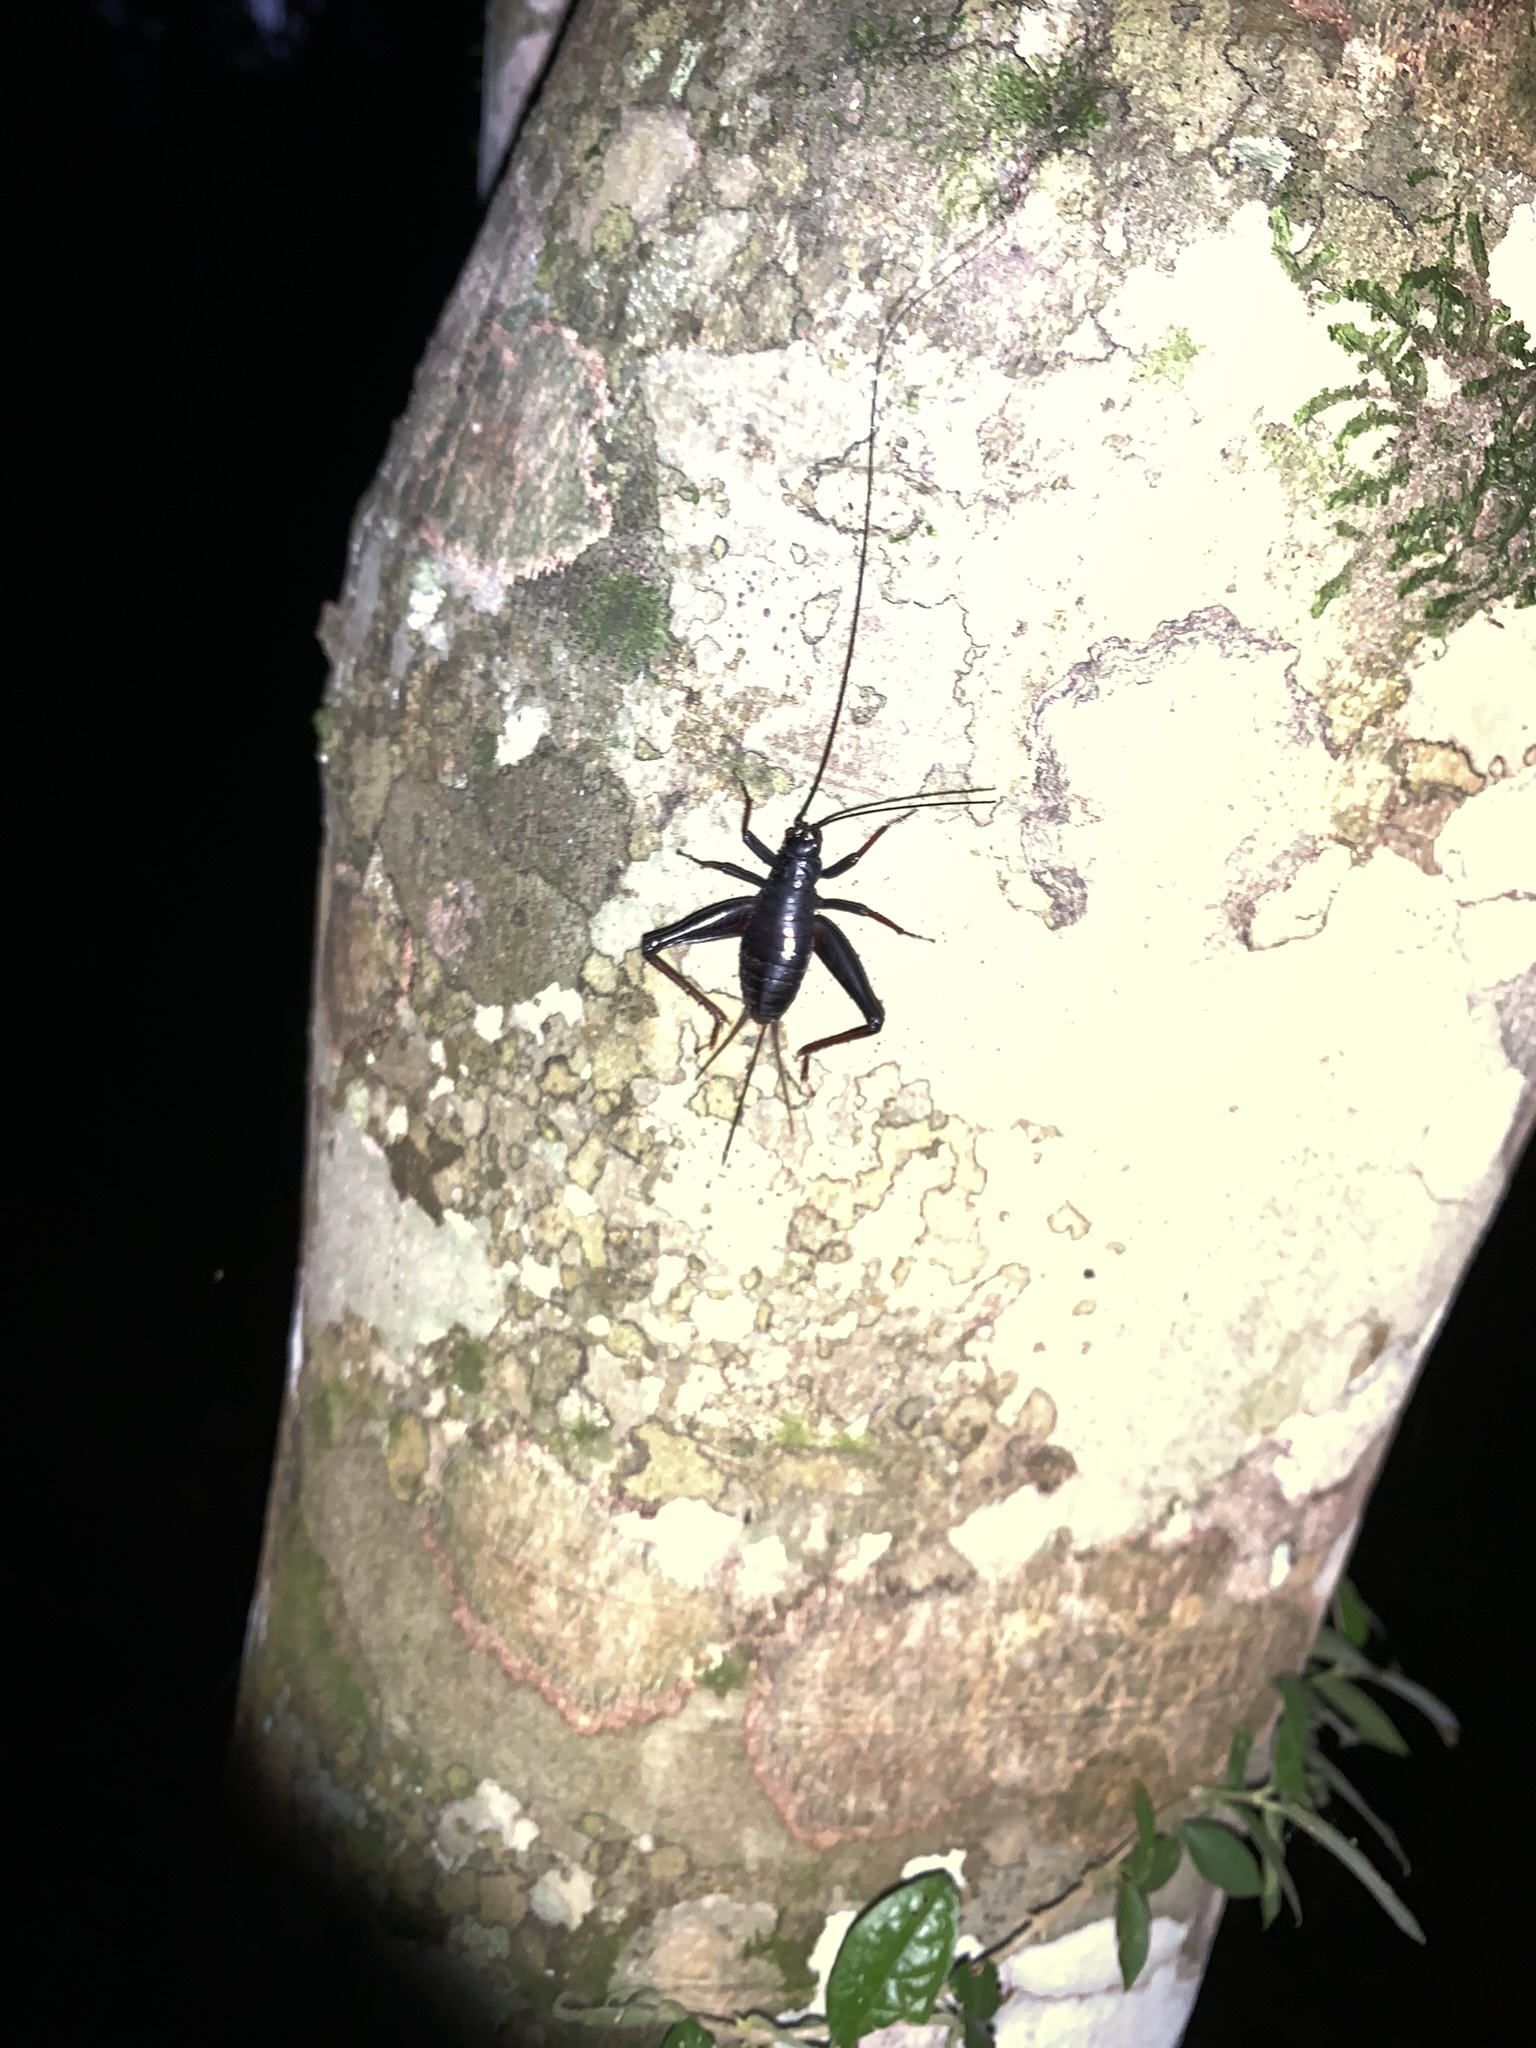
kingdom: Animalia
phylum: Arthropoda
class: Insecta
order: Orthoptera
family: Phalangopsidae
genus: Laranda
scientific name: Laranda meridionalis
